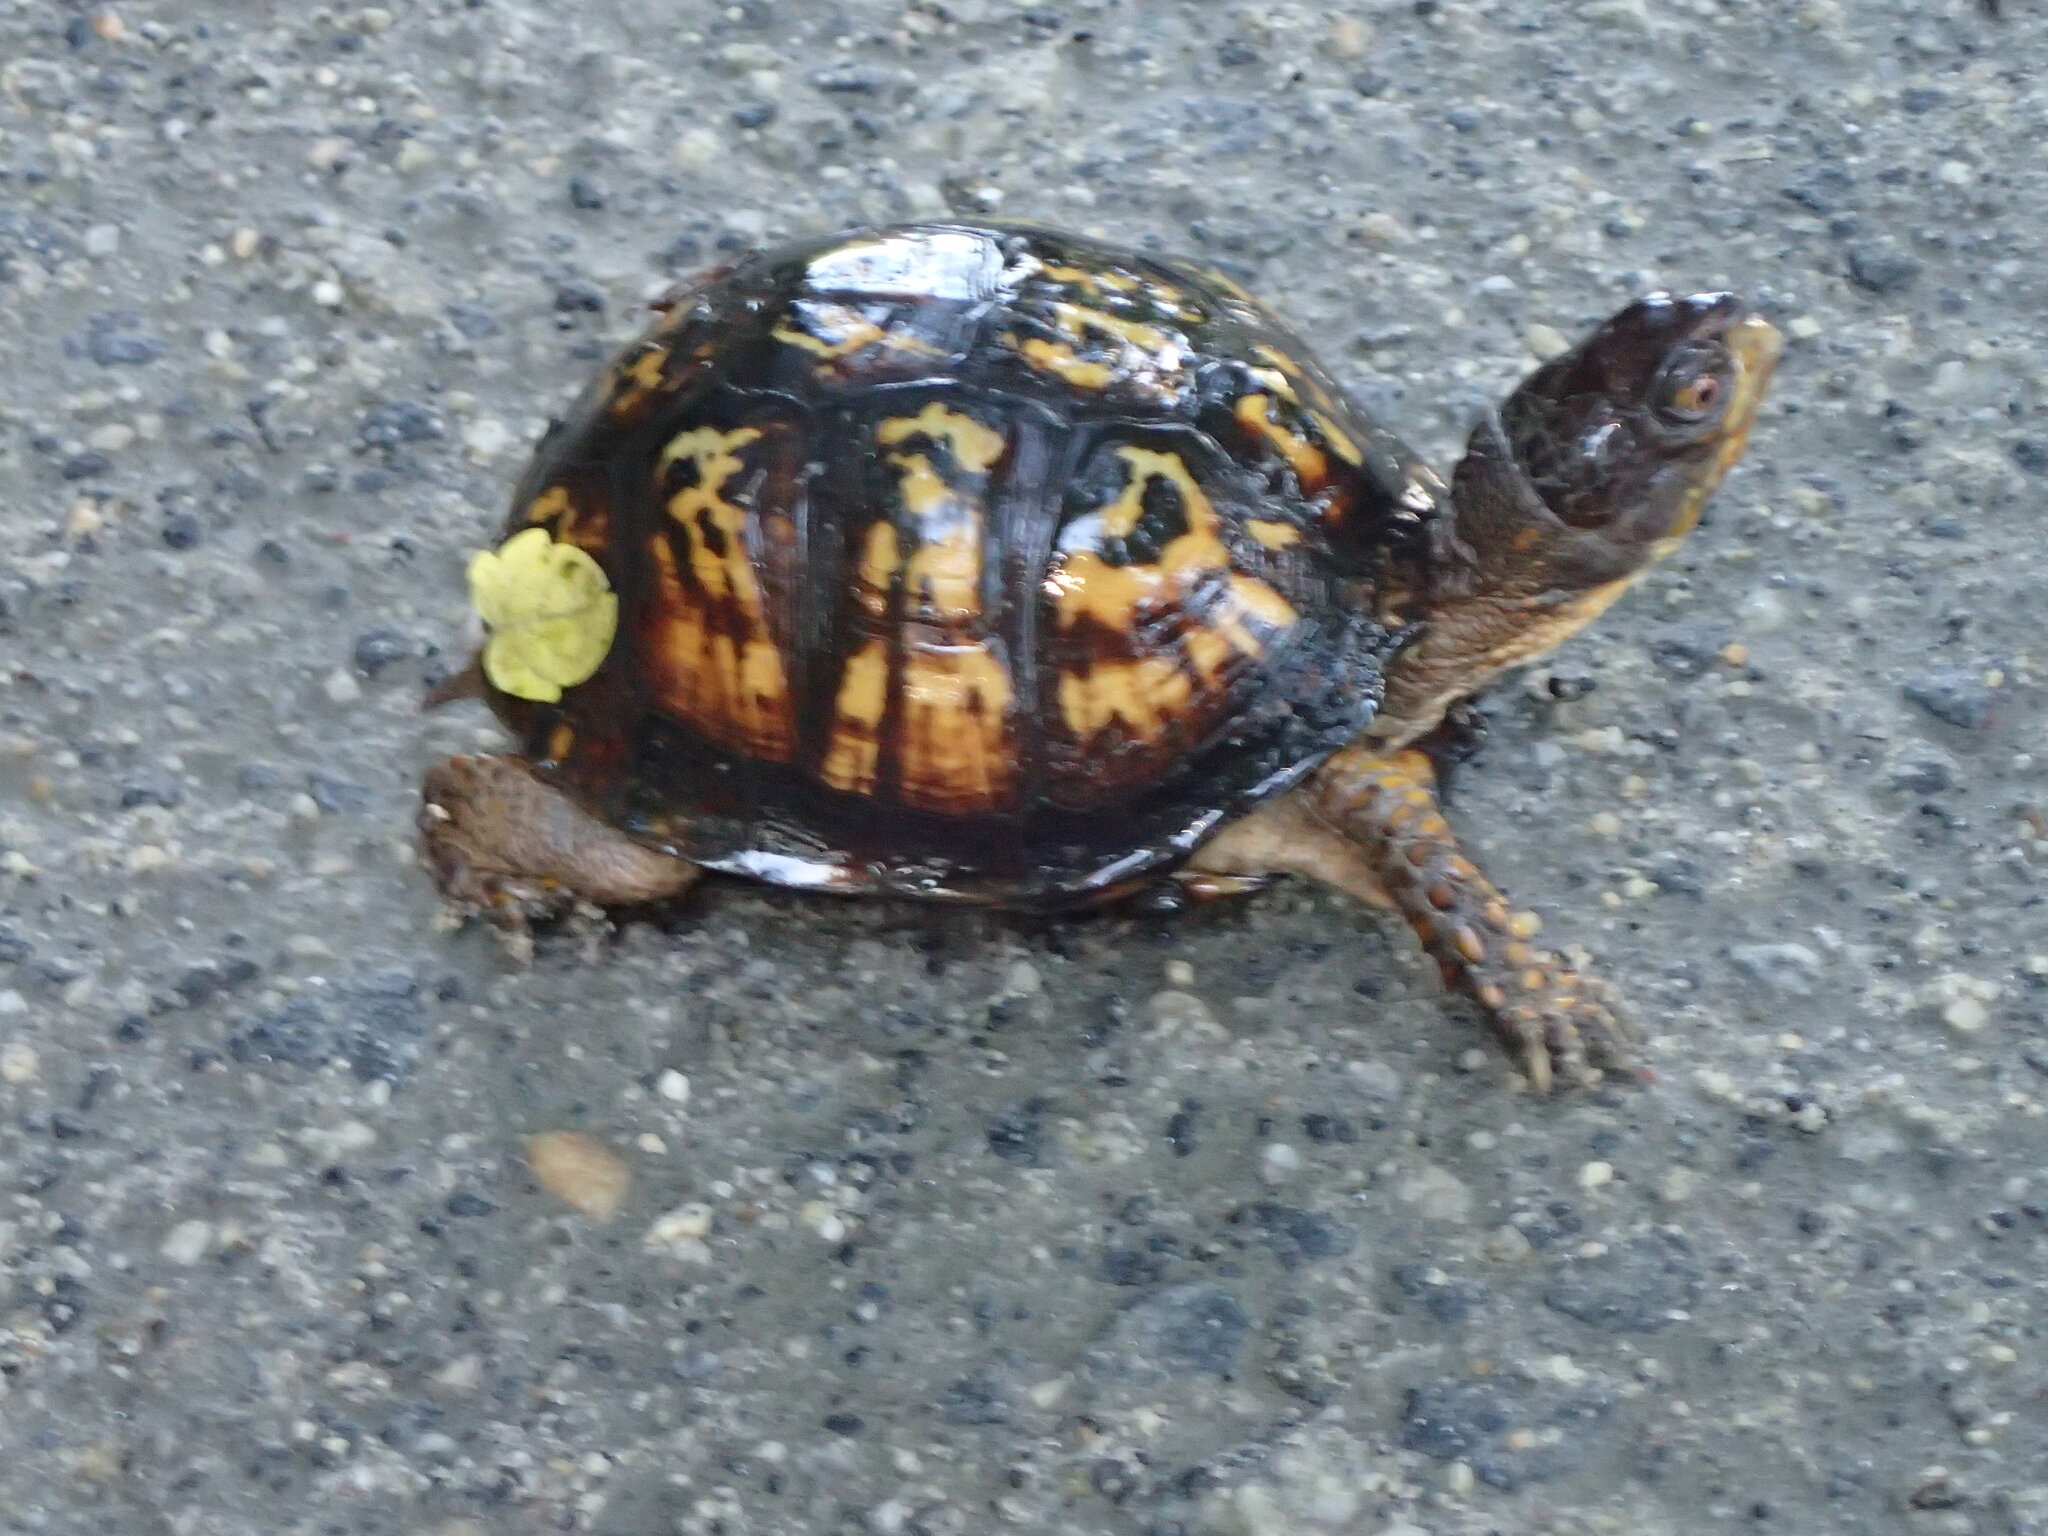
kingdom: Animalia
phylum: Chordata
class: Testudines
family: Emydidae
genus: Terrapene
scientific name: Terrapene carolina
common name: Common box turtle
